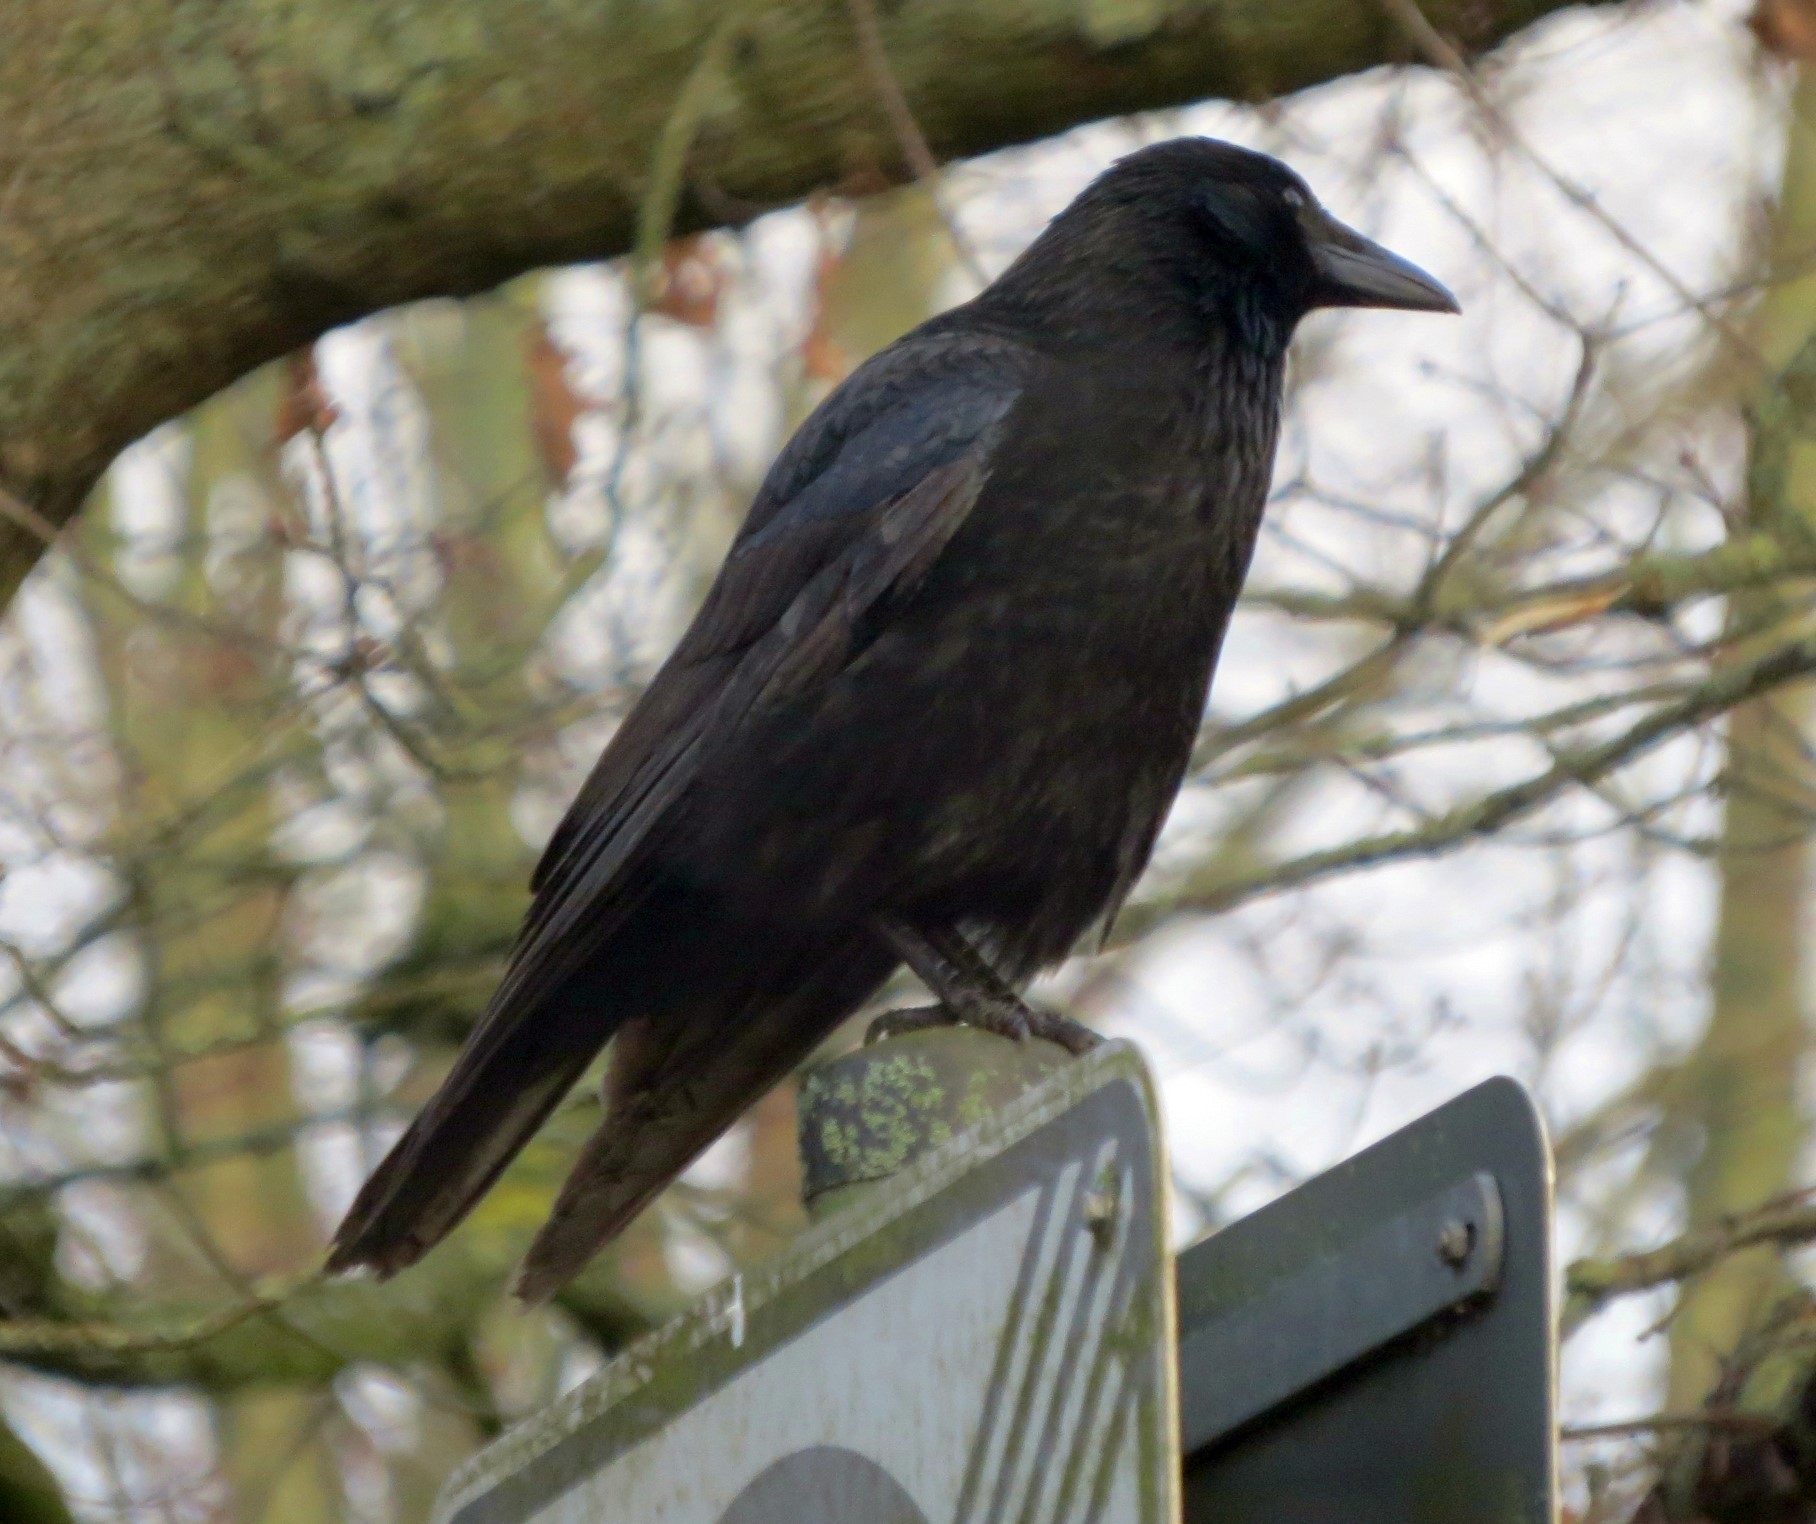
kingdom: Animalia
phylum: Chordata
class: Aves
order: Passeriformes
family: Corvidae
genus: Corvus
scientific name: Corvus corone
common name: Carrion crow
